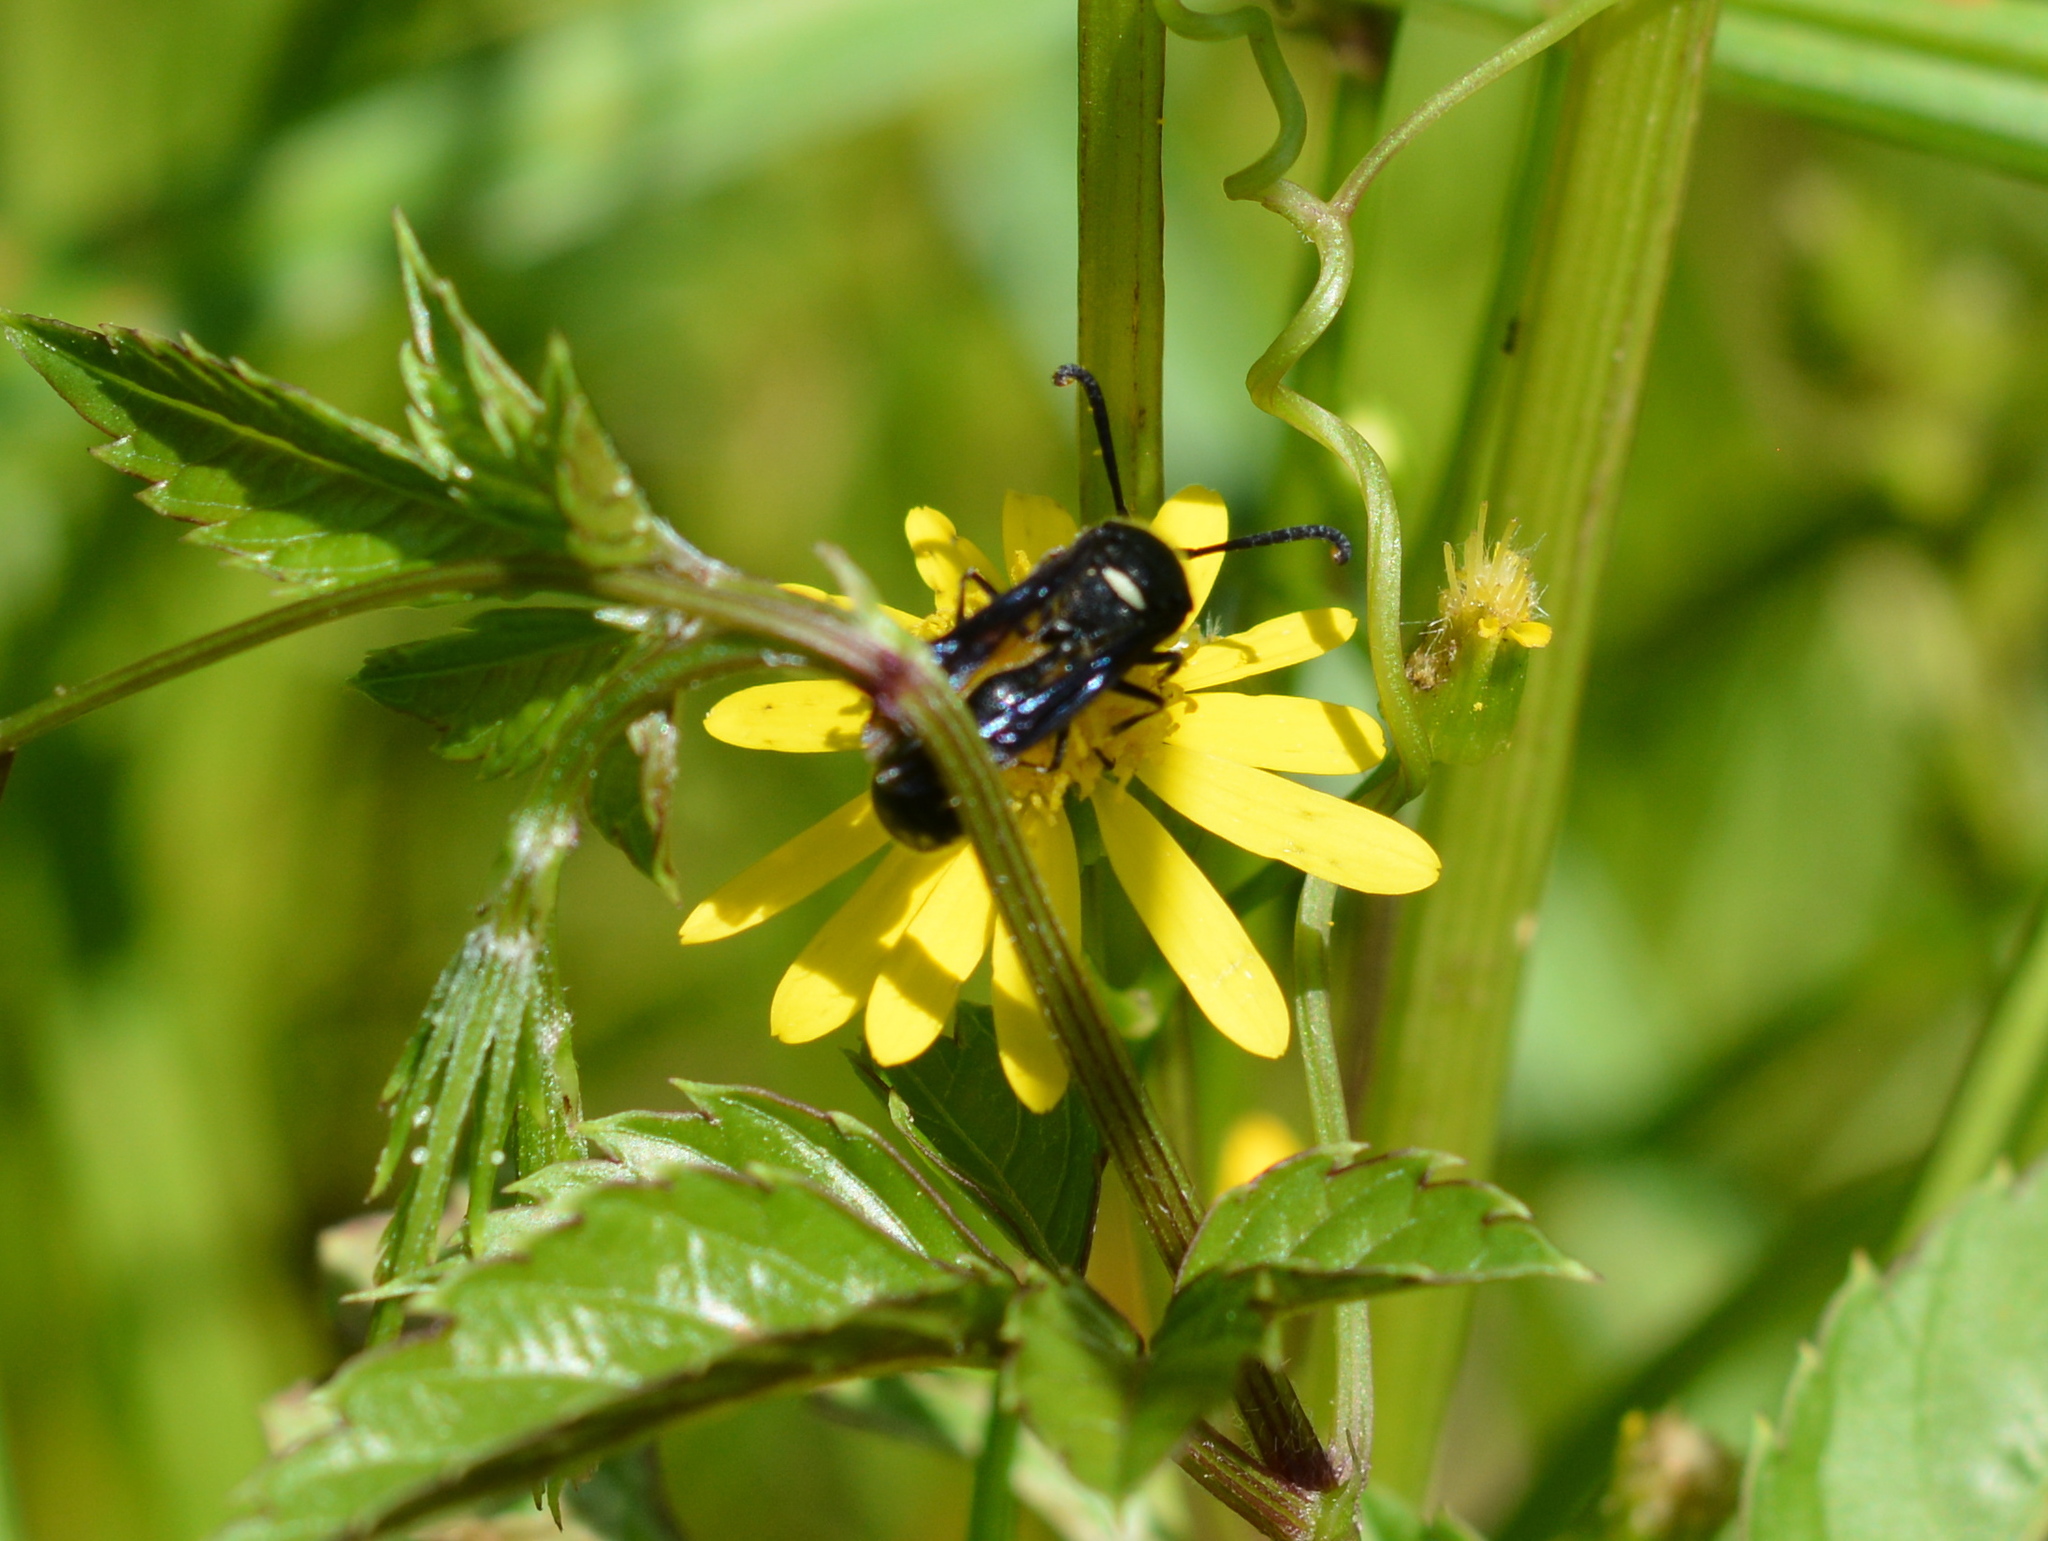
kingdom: Animalia
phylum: Arthropoda
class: Insecta
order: Hymenoptera
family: Vespidae
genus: Eumenes
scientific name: Eumenes fraternus
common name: Fraternal potter wasp
